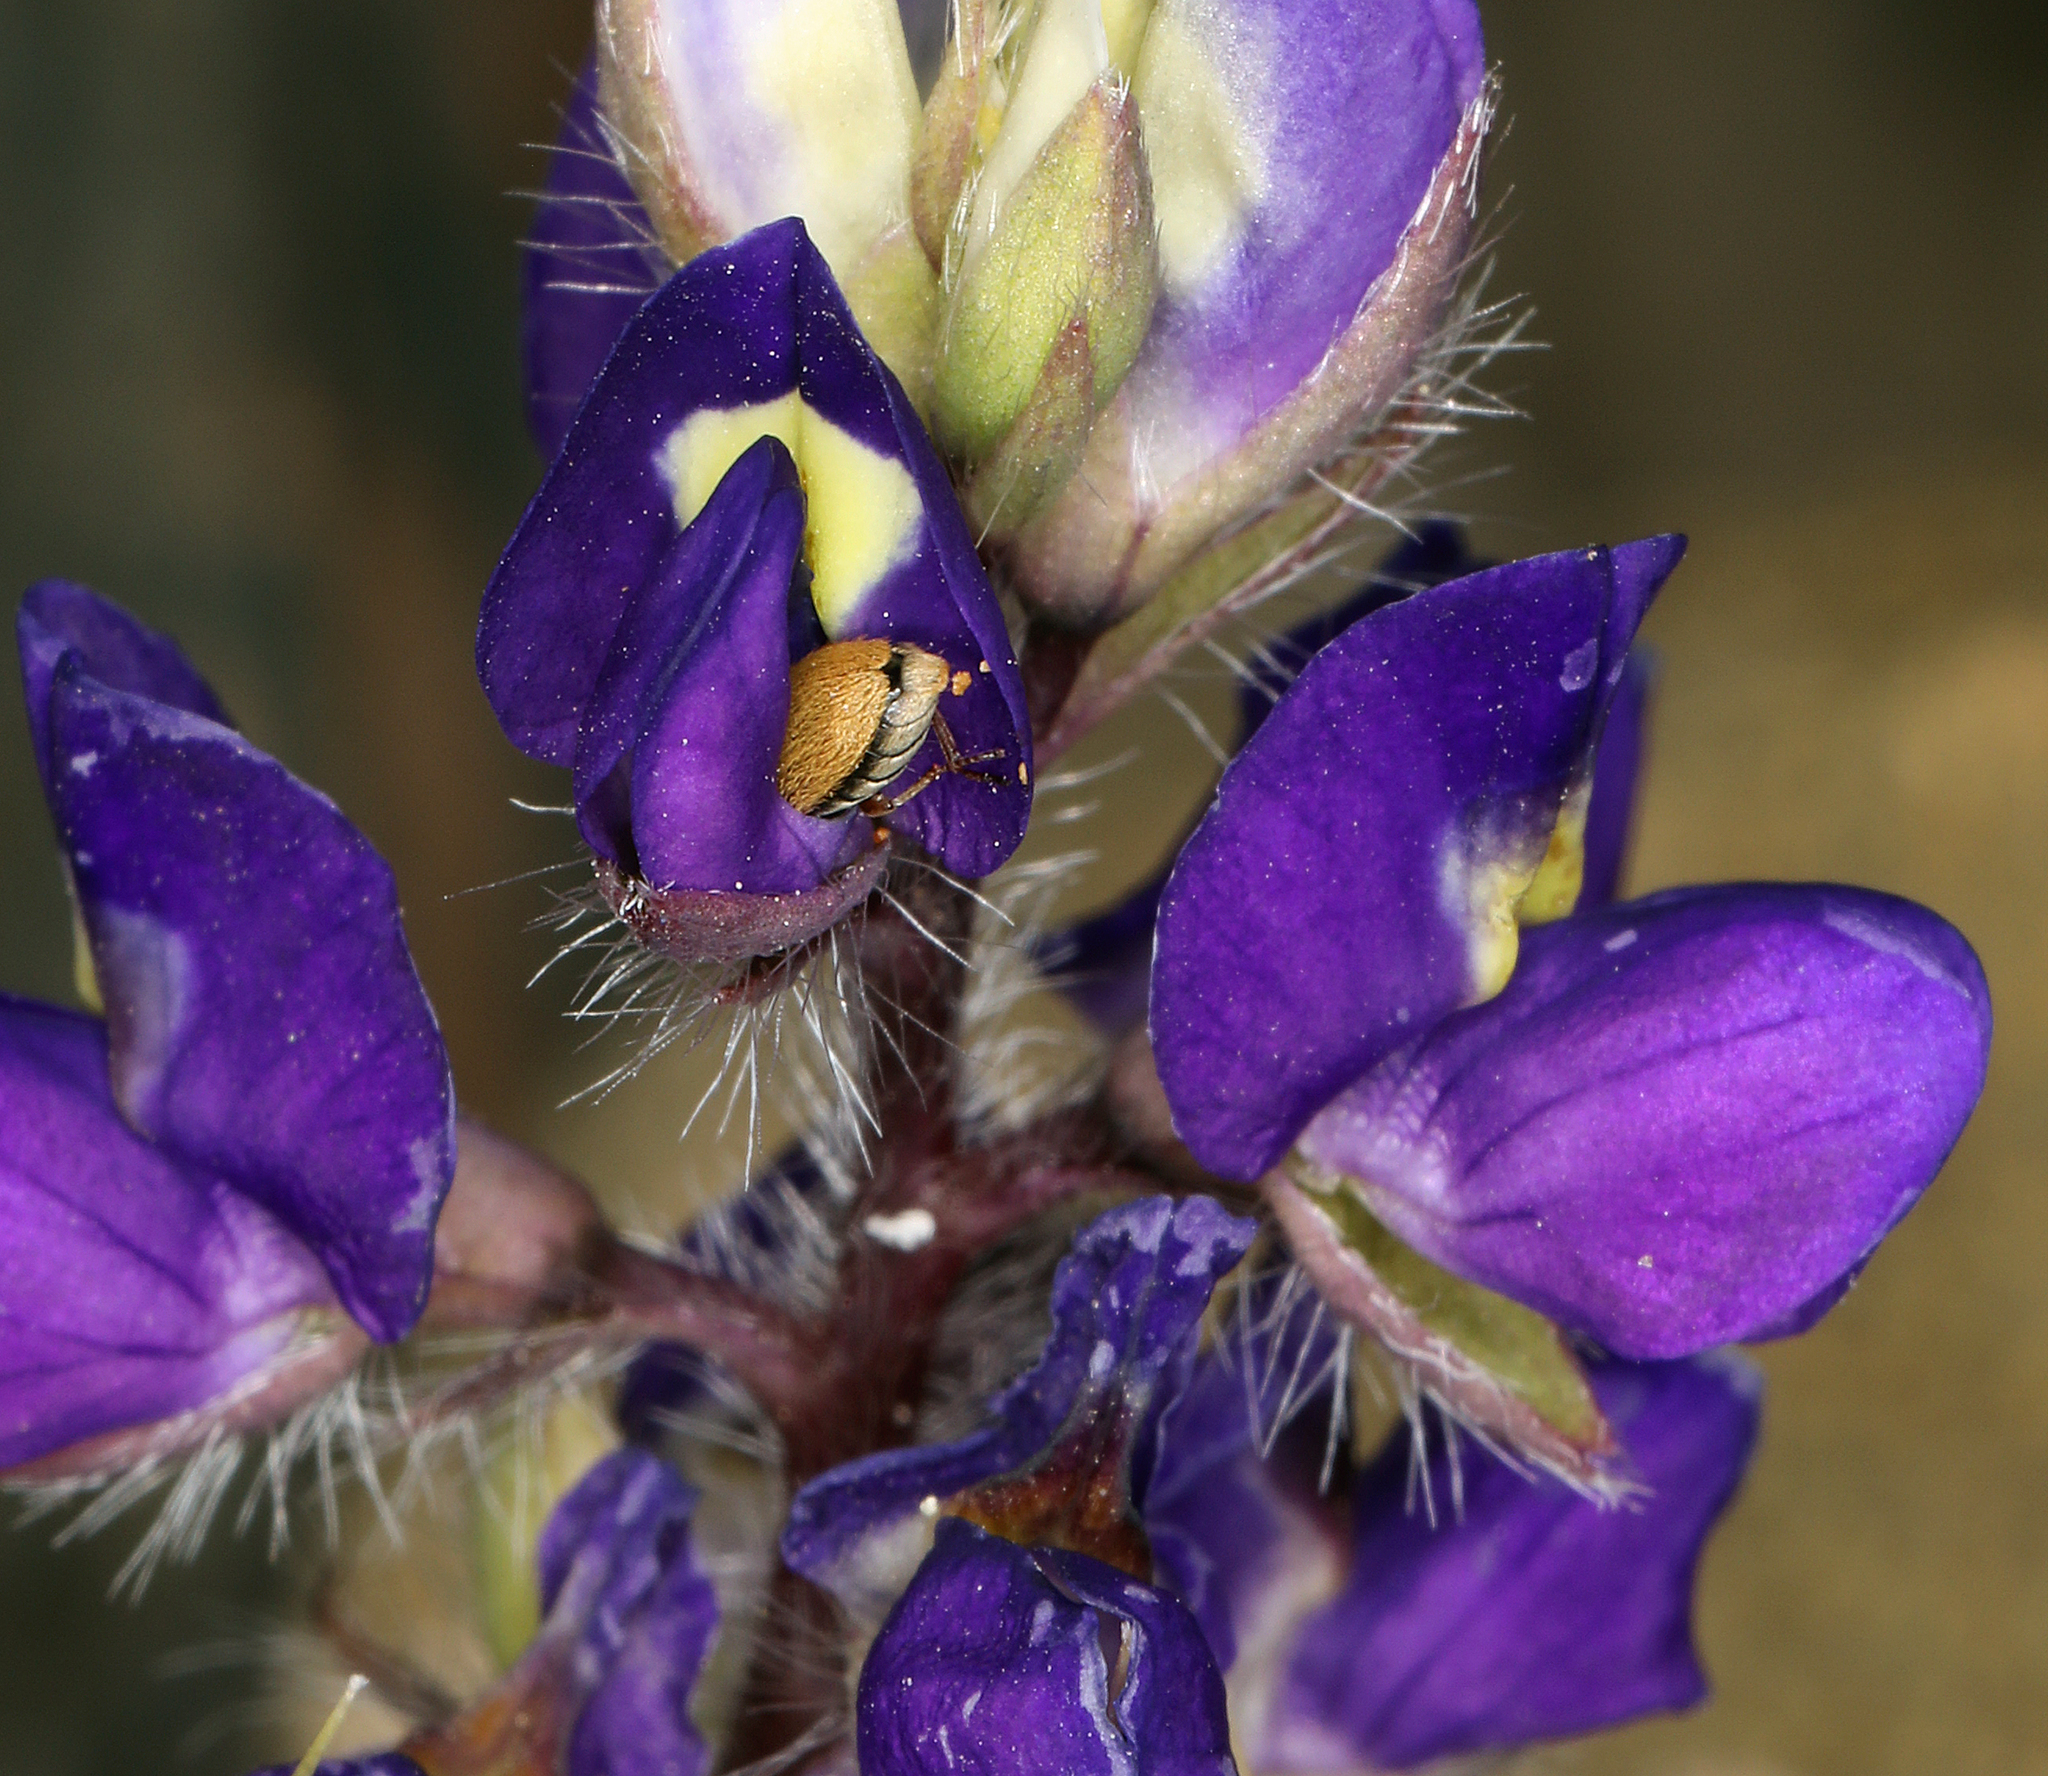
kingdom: Plantae
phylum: Tracheophyta
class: Magnoliopsida
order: Fabales
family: Fabaceae
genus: Lupinus
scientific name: Lupinus flavoculatus
